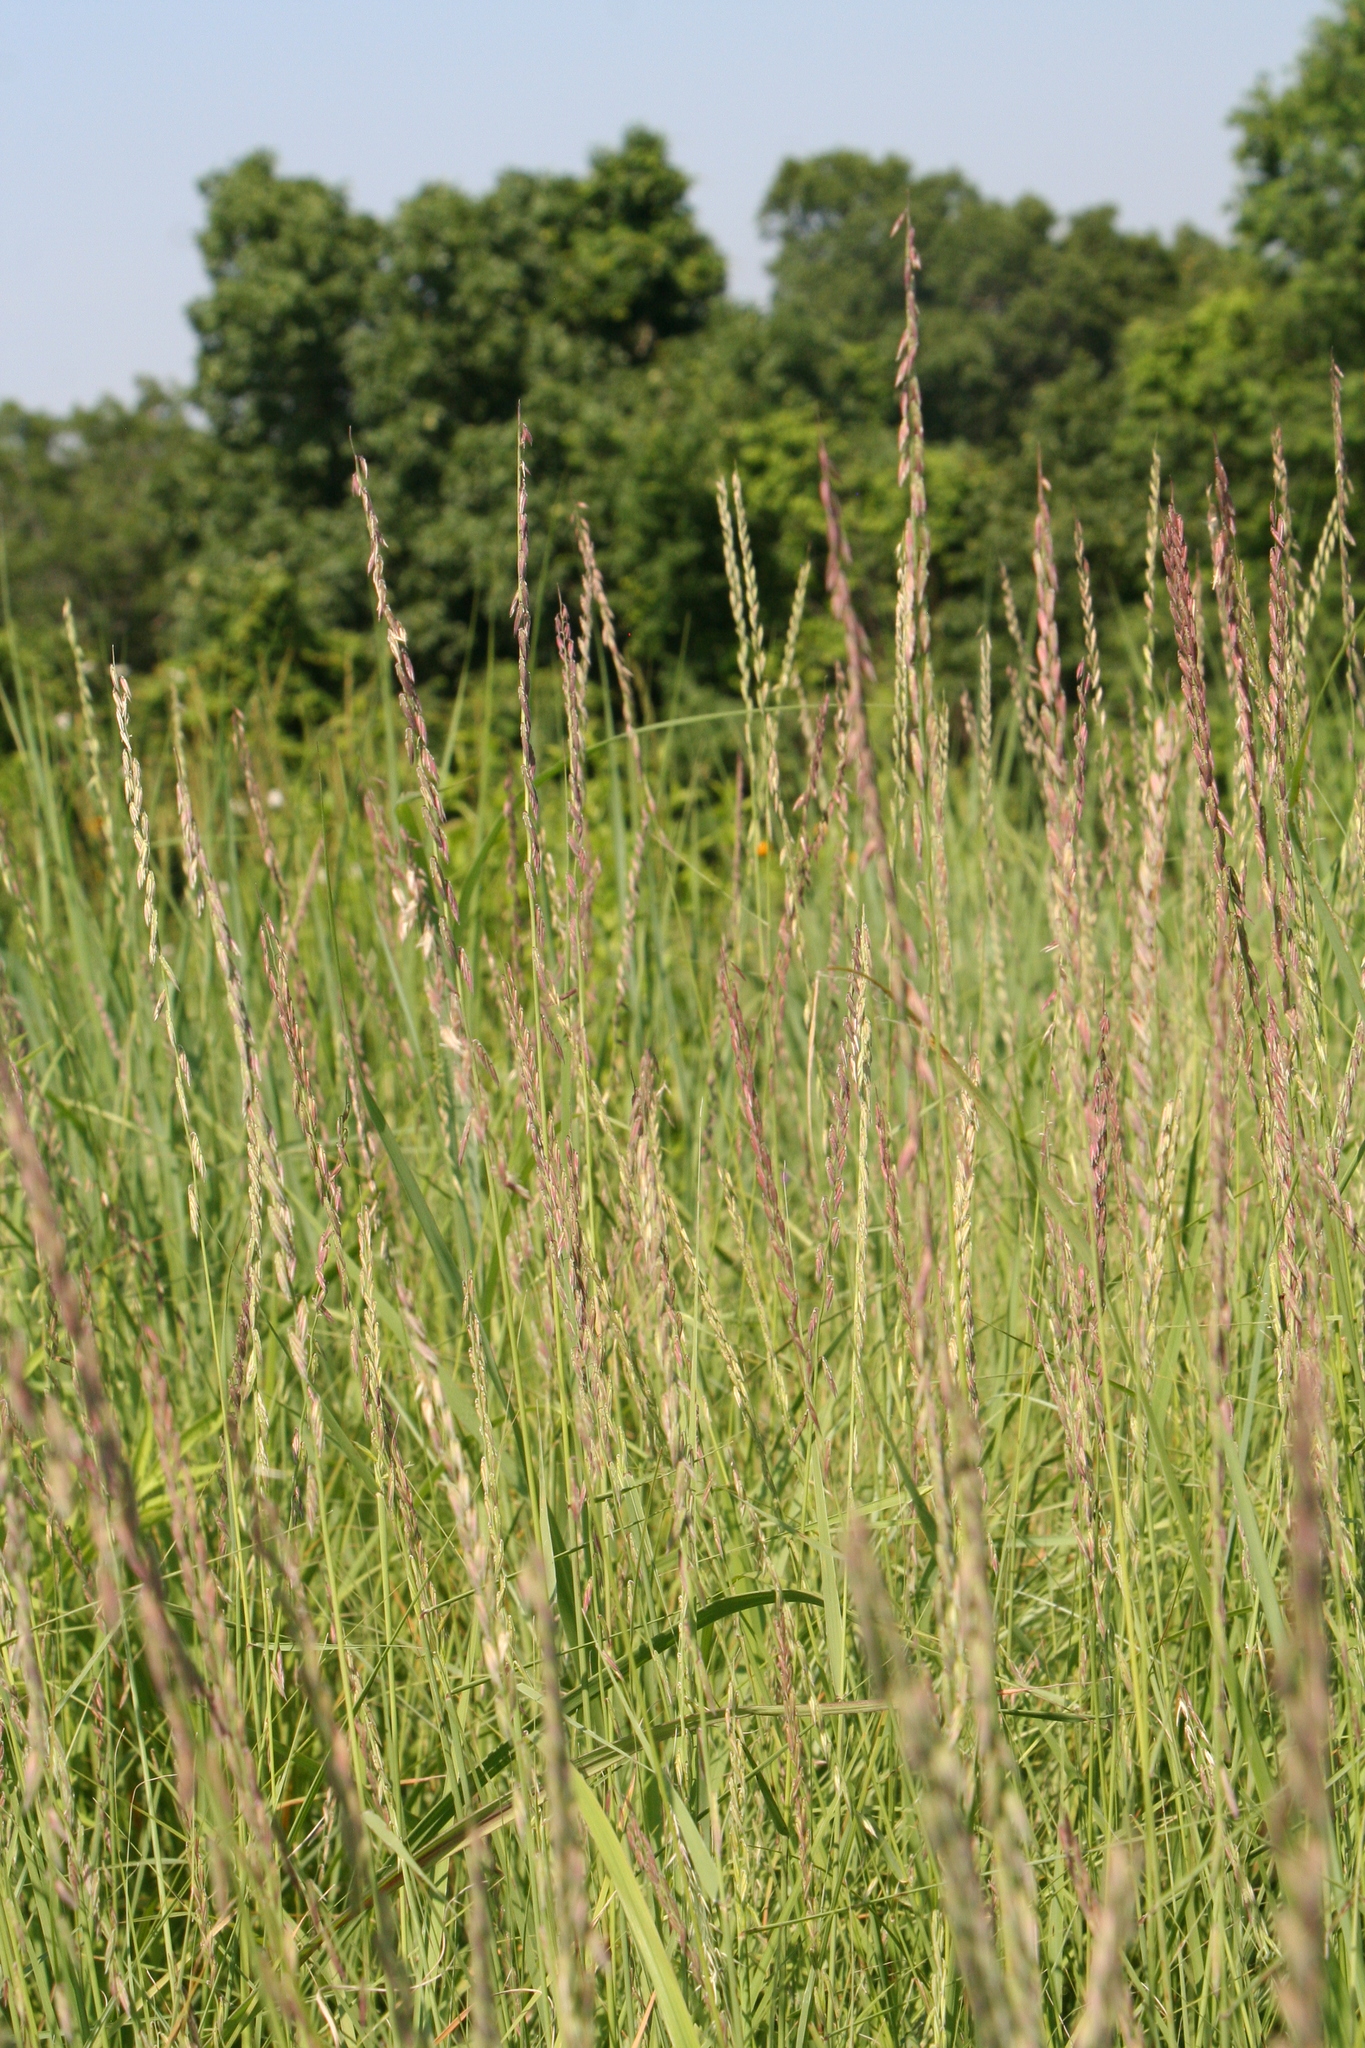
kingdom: Plantae
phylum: Tracheophyta
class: Liliopsida
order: Poales
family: Poaceae
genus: Bouteloua
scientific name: Bouteloua curtipendula
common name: Side-oats grama
